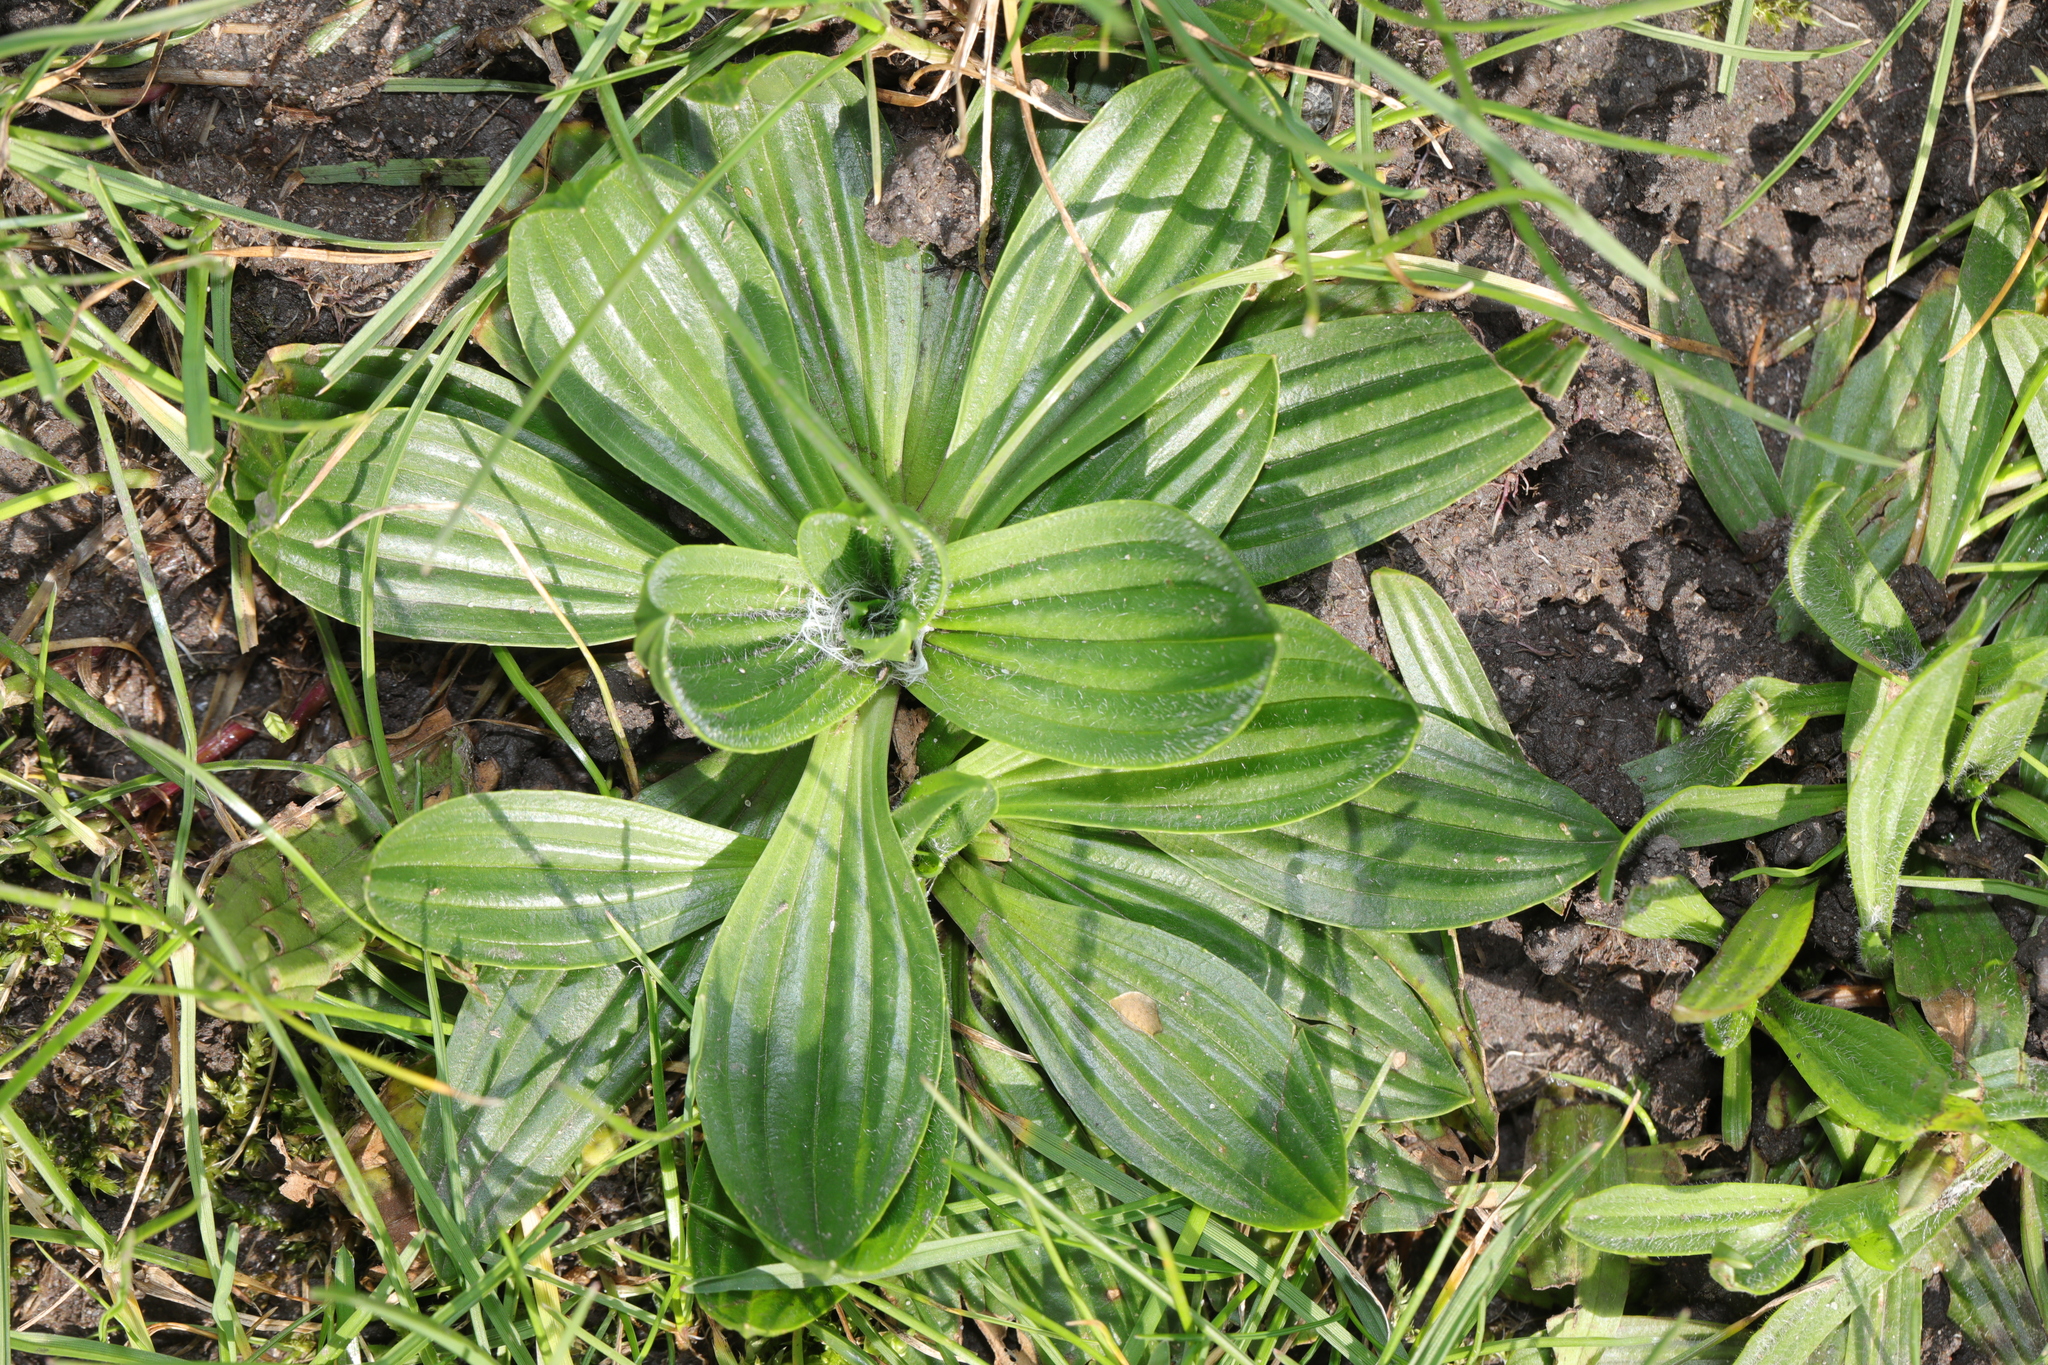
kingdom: Plantae
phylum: Tracheophyta
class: Magnoliopsida
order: Lamiales
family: Plantaginaceae
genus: Plantago
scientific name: Plantago lanceolata
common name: Ribwort plantain
